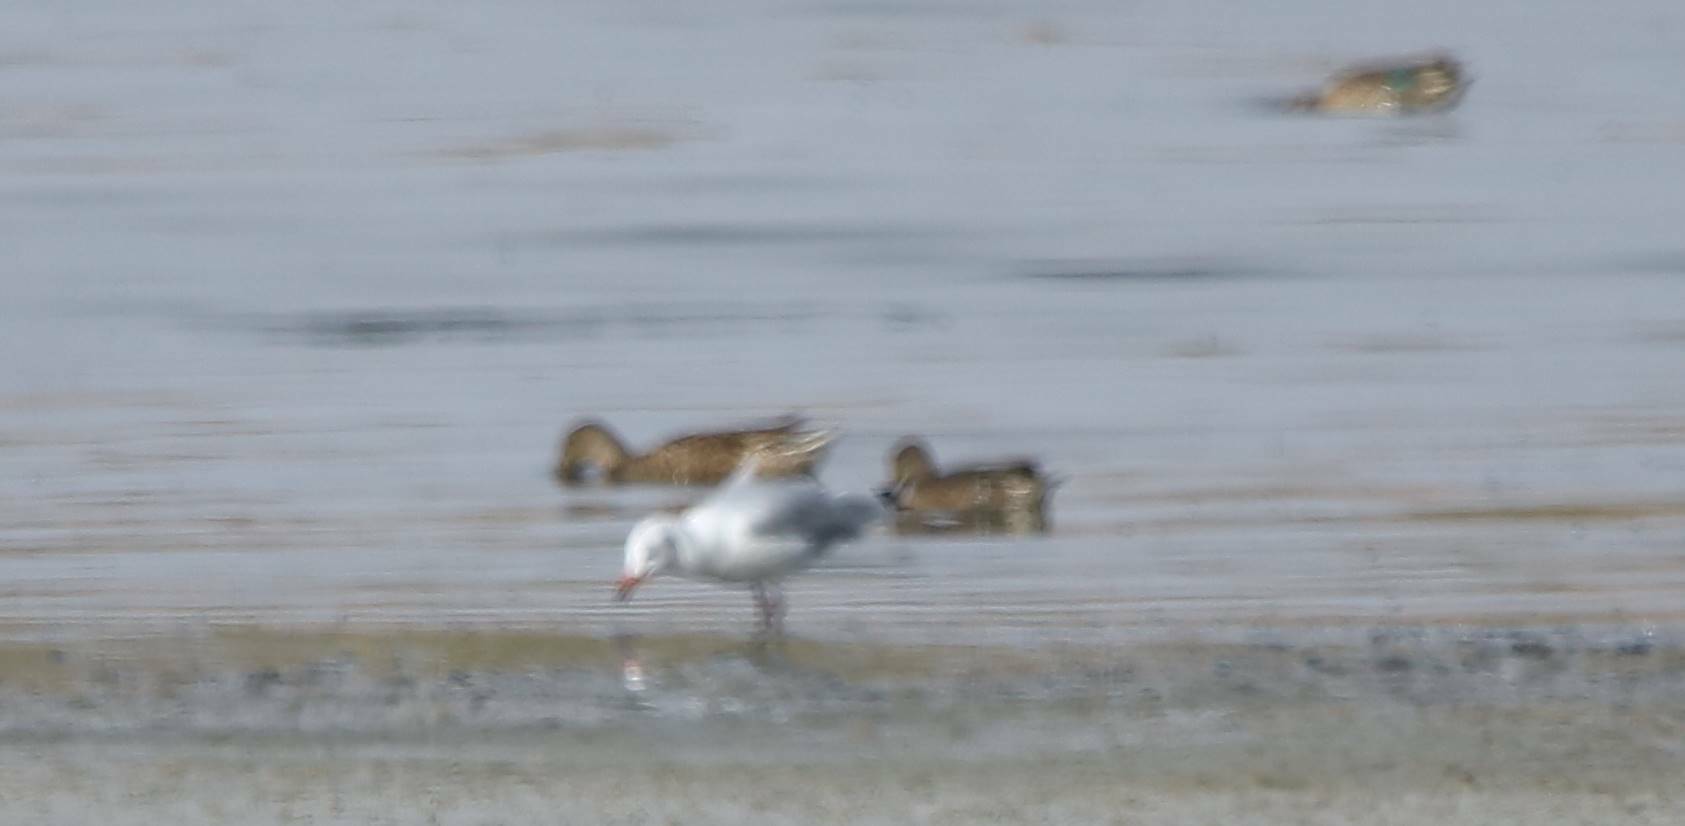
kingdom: Animalia
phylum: Chordata
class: Aves
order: Charadriiformes
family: Laridae
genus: Chroicocephalus
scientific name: Chroicocephalus genei
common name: Slender-billed gull
